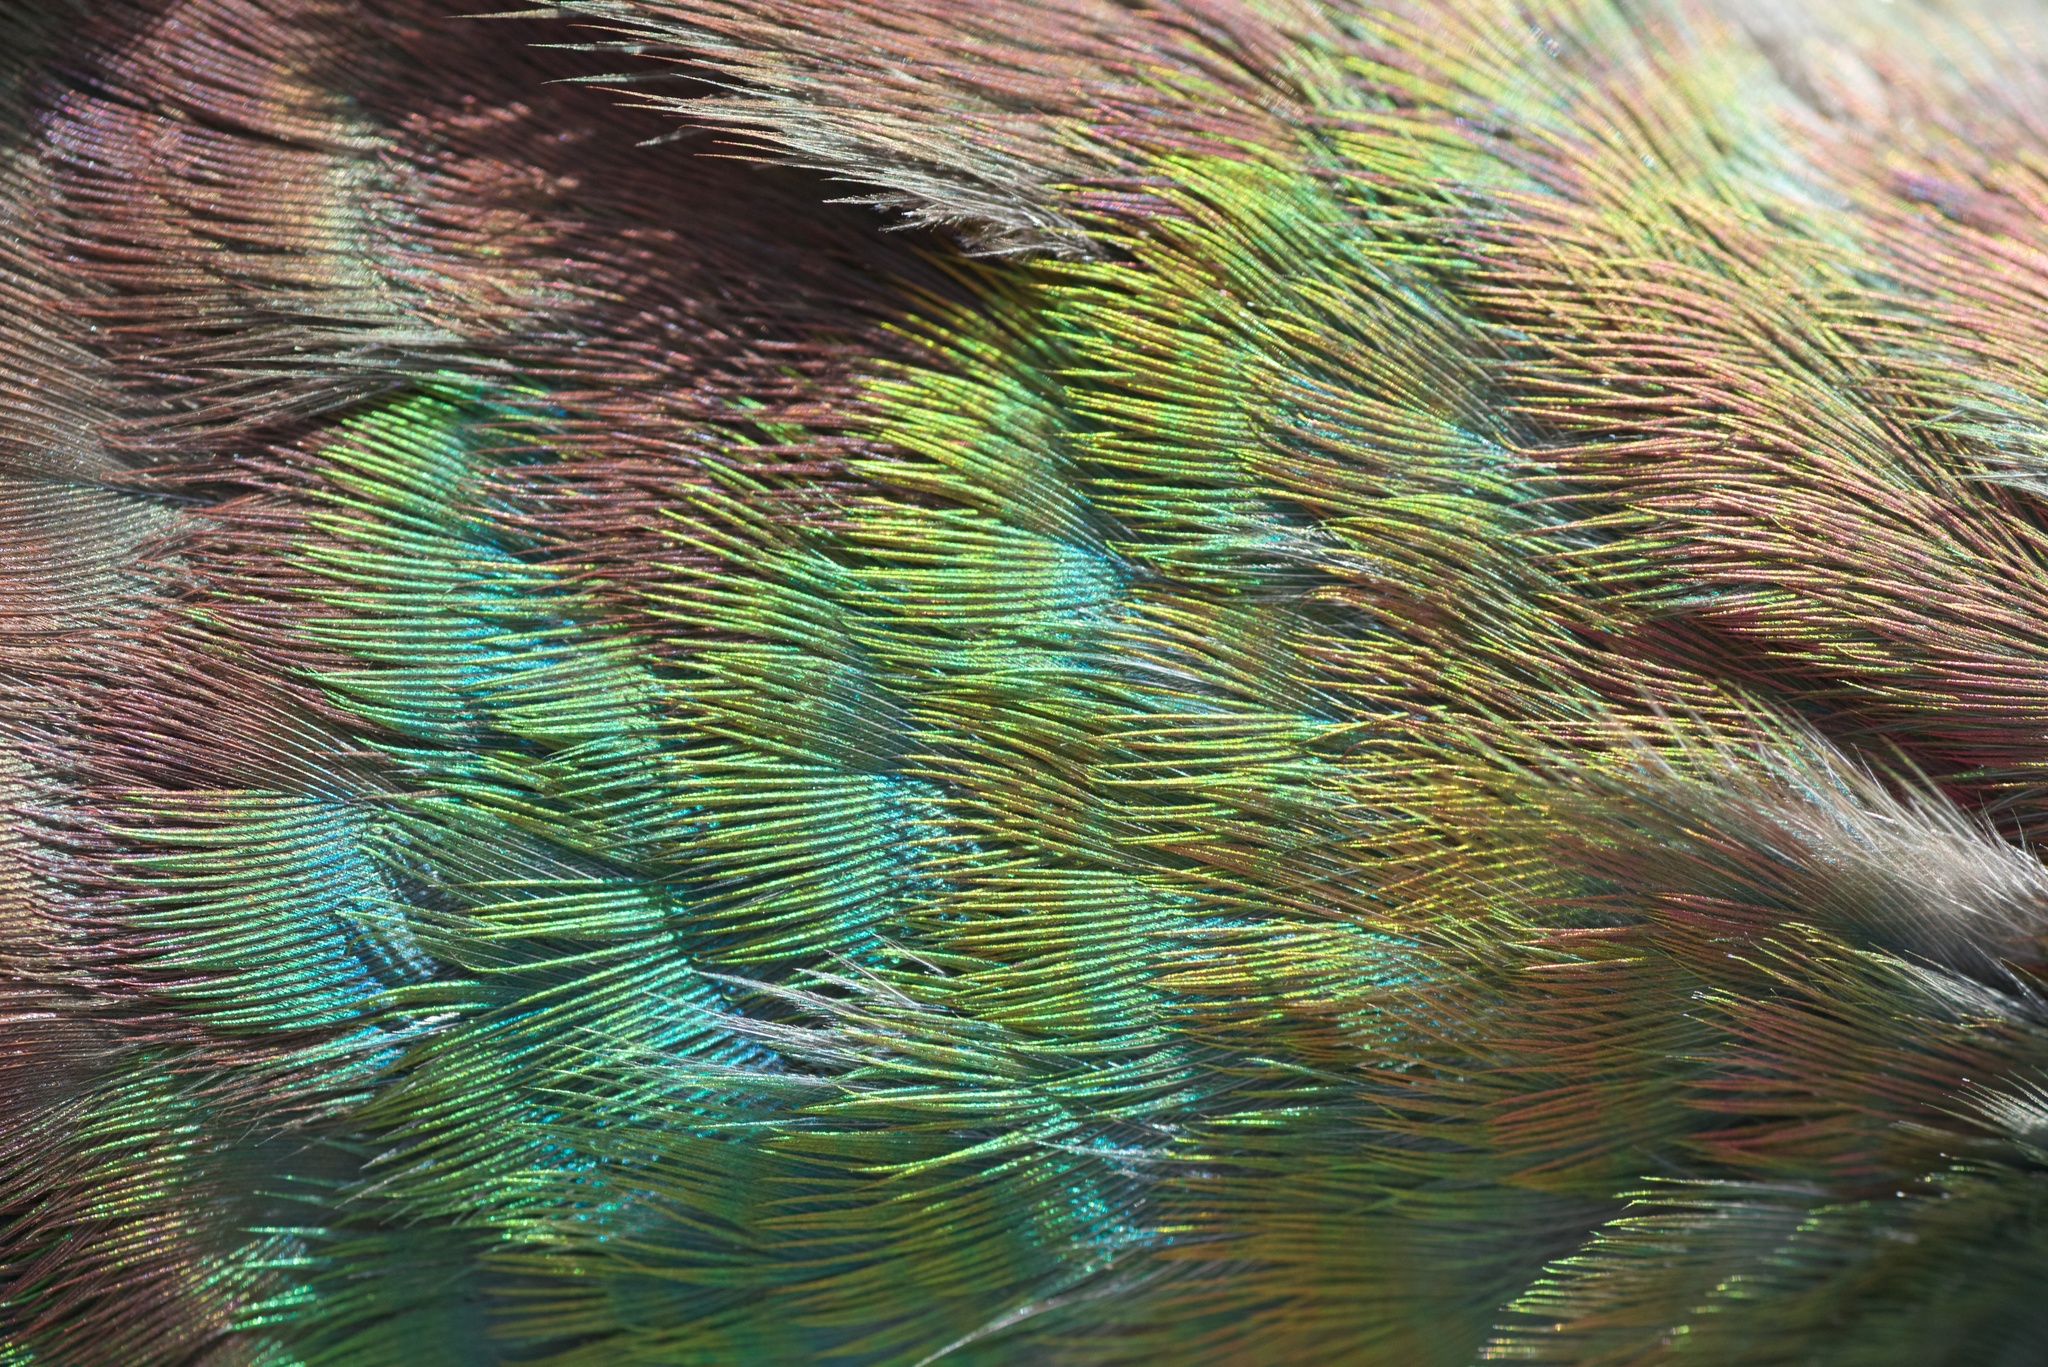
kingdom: Animalia
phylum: Chordata
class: Aves
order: Columbiformes
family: Columbidae
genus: Hemiphaga
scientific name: Hemiphaga novaeseelandiae
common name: New zealand pigeon
